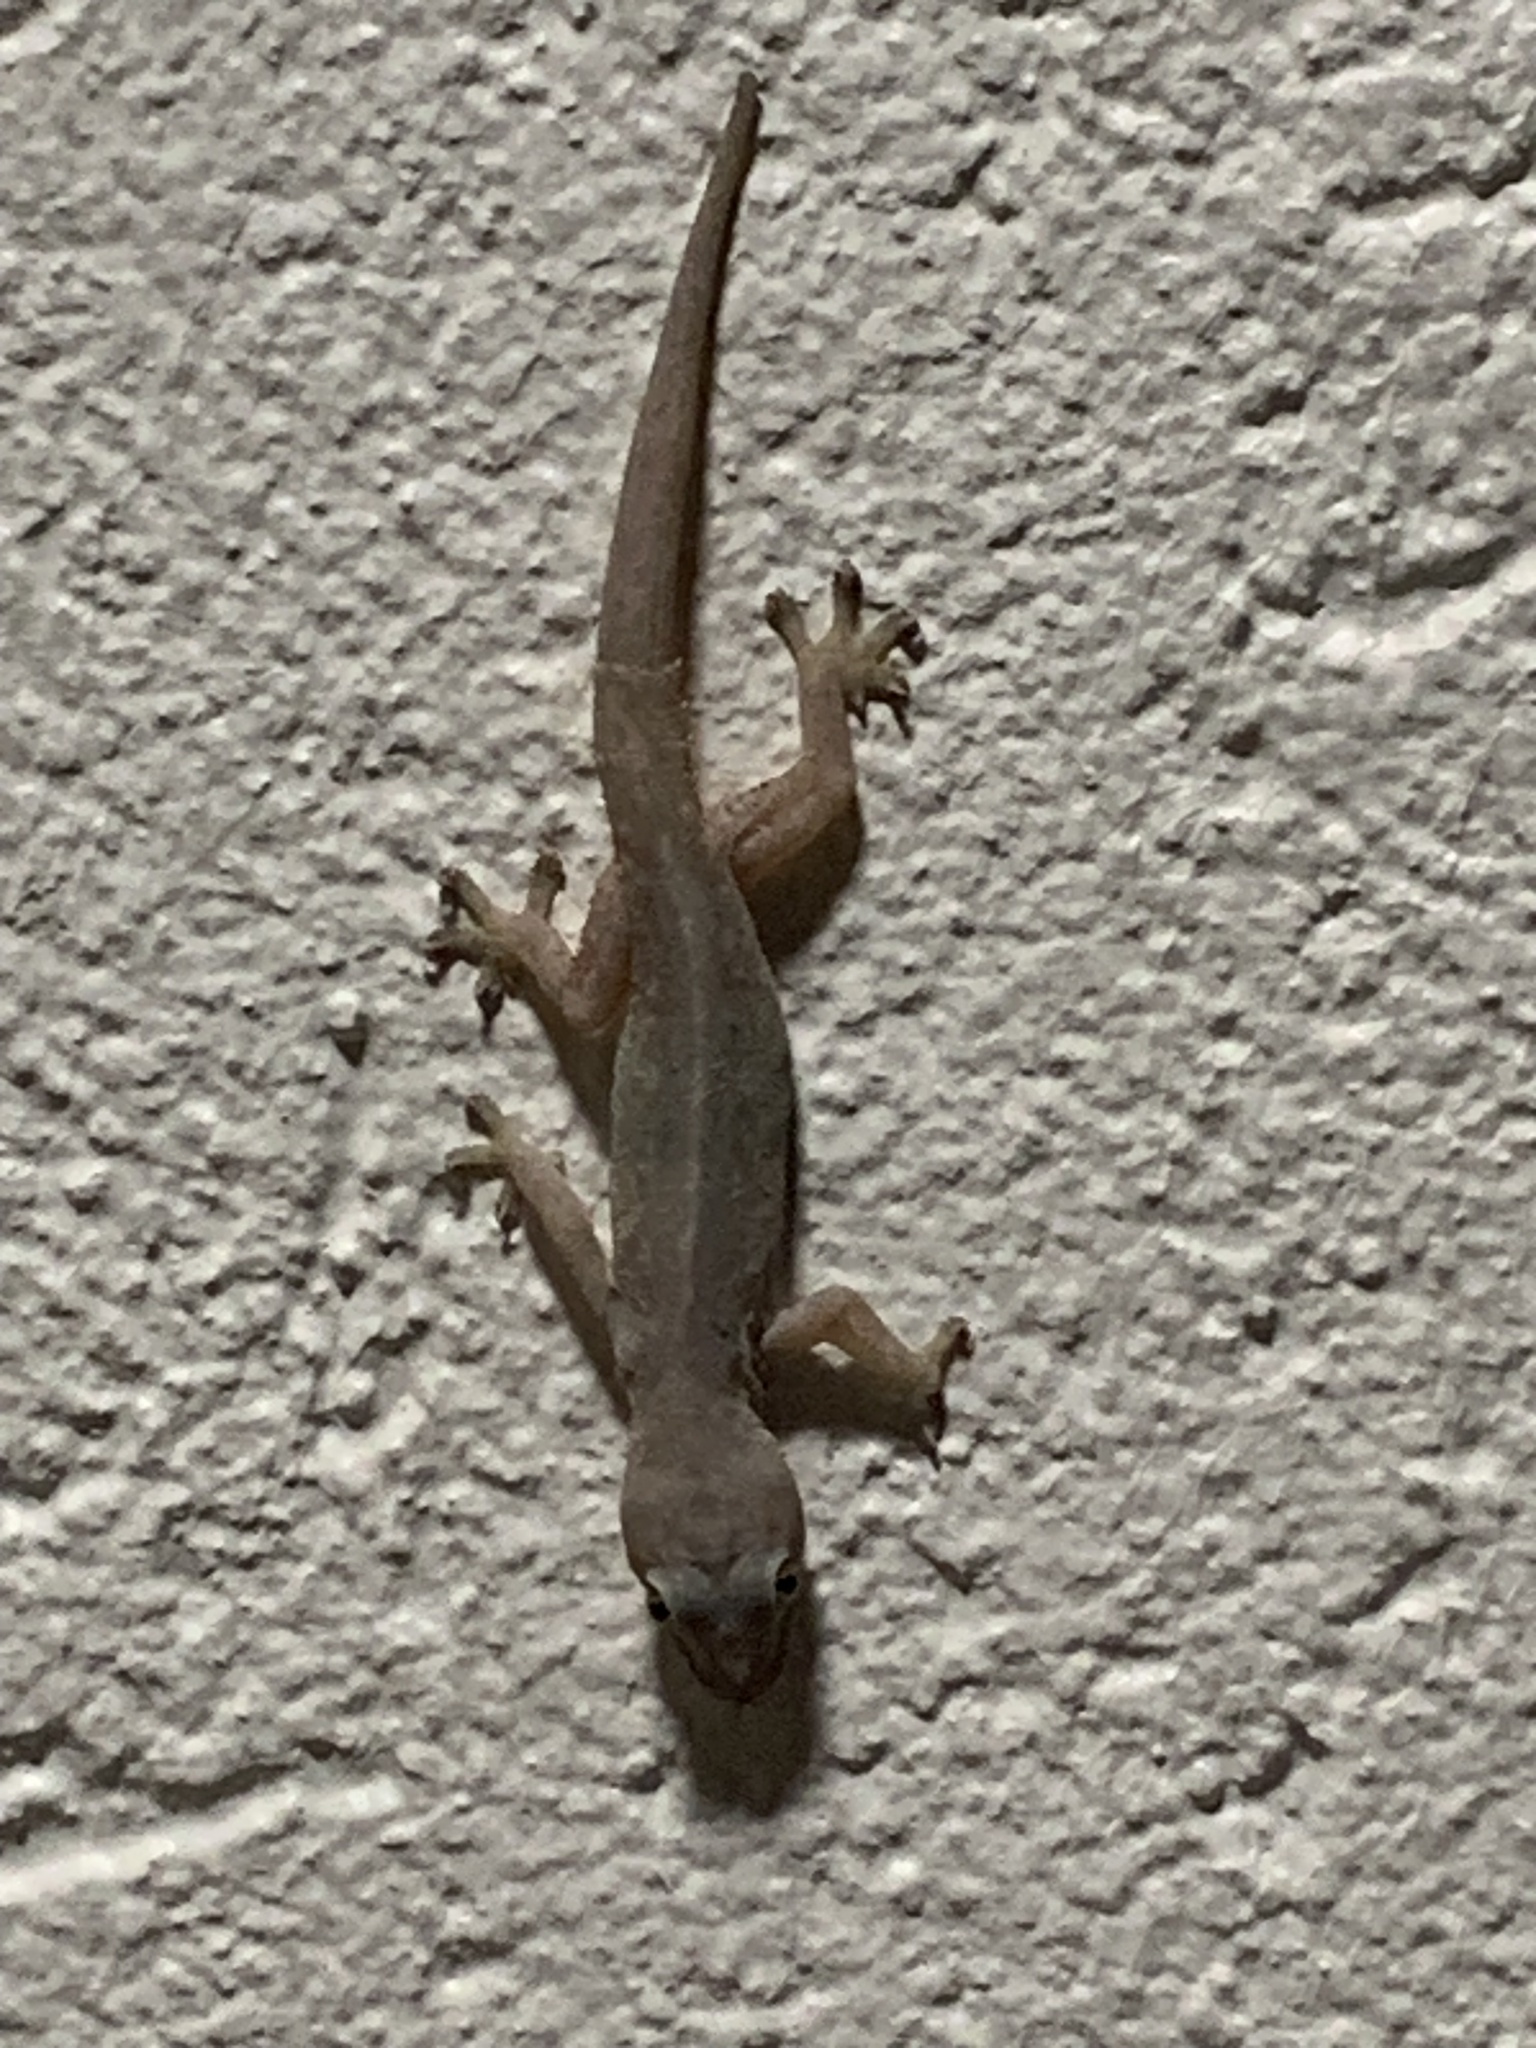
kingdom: Animalia
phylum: Chordata
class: Squamata
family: Gekkonidae
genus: Hemidactylus
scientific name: Hemidactylus frenatus
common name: Common house gecko
